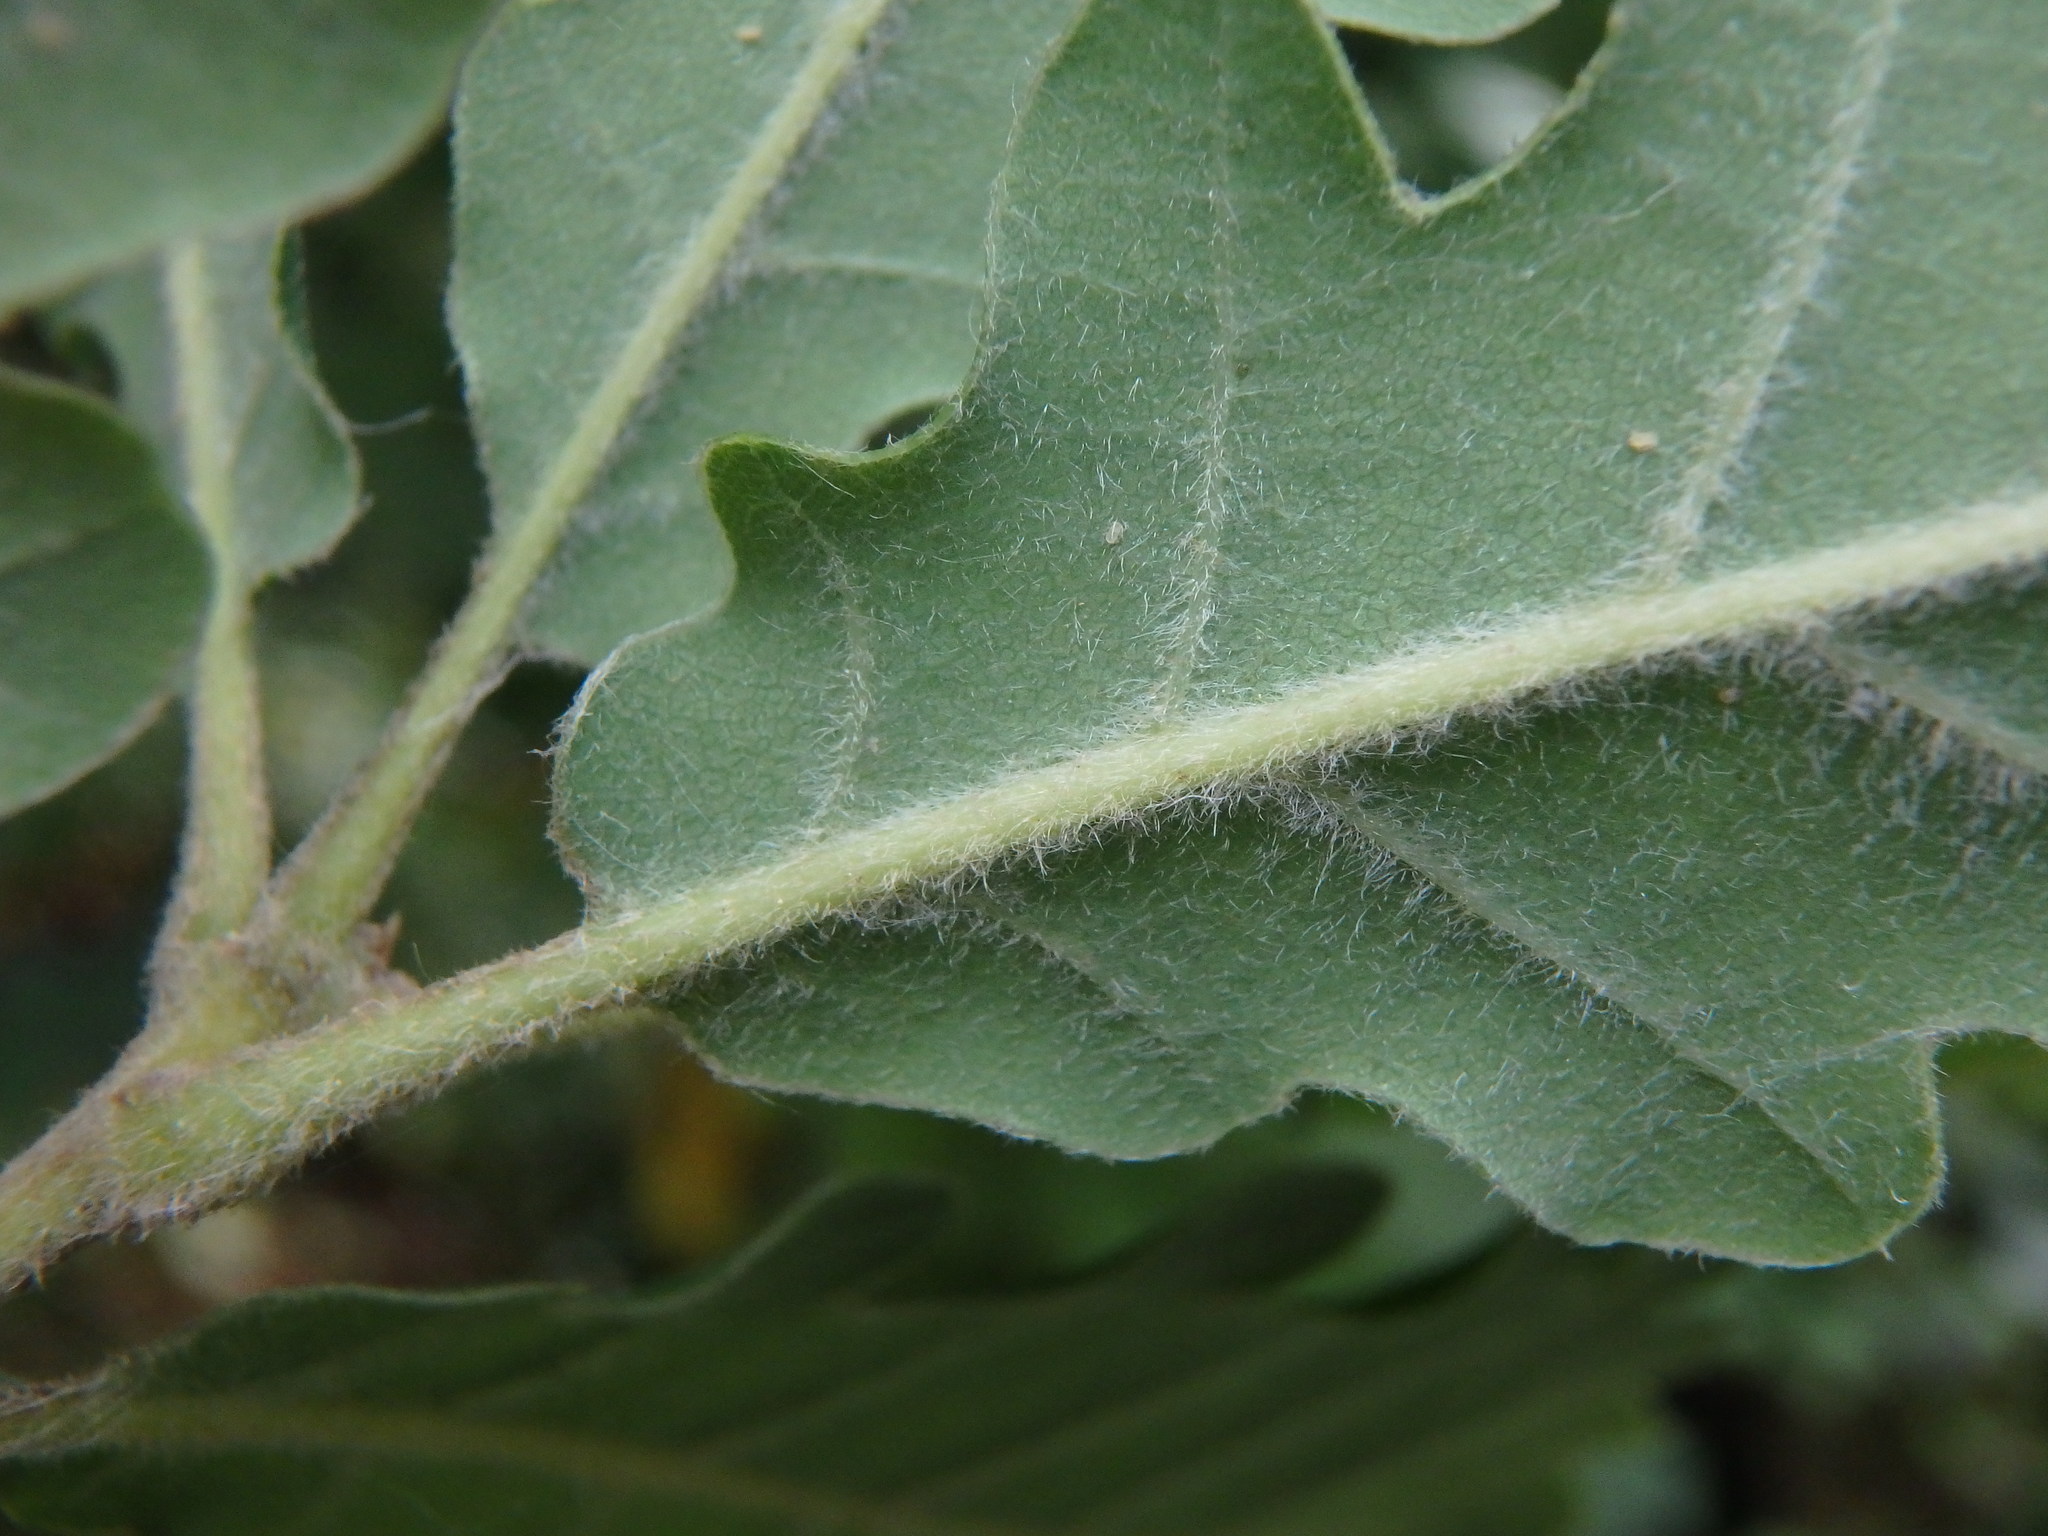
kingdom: Plantae
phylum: Tracheophyta
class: Magnoliopsida
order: Fagales
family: Fagaceae
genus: Quercus
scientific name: Quercus pubescens
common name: Downy oak
